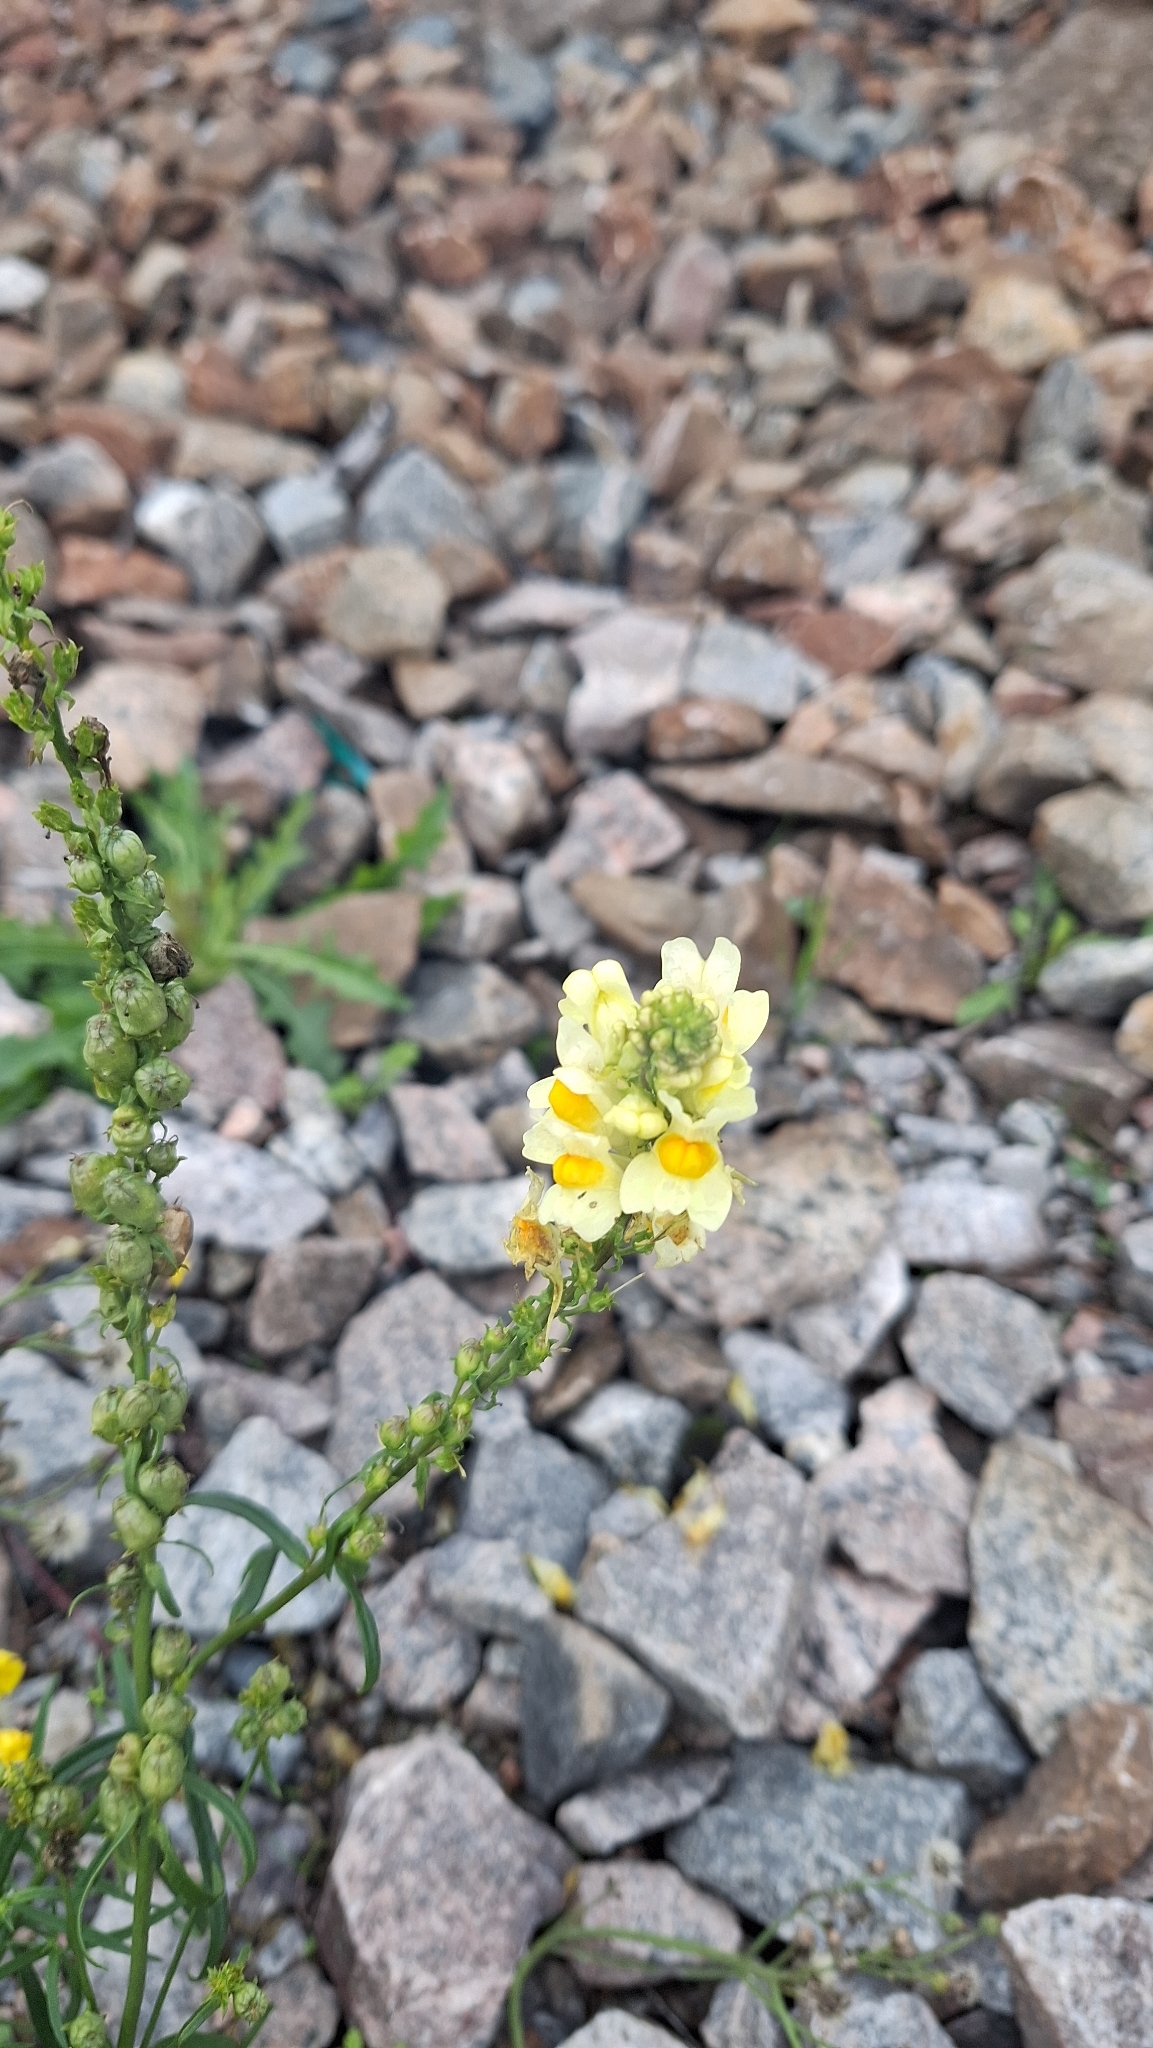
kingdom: Plantae
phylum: Tracheophyta
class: Magnoliopsida
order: Lamiales
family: Plantaginaceae
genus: Linaria
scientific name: Linaria vulgaris
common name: Butter and eggs
